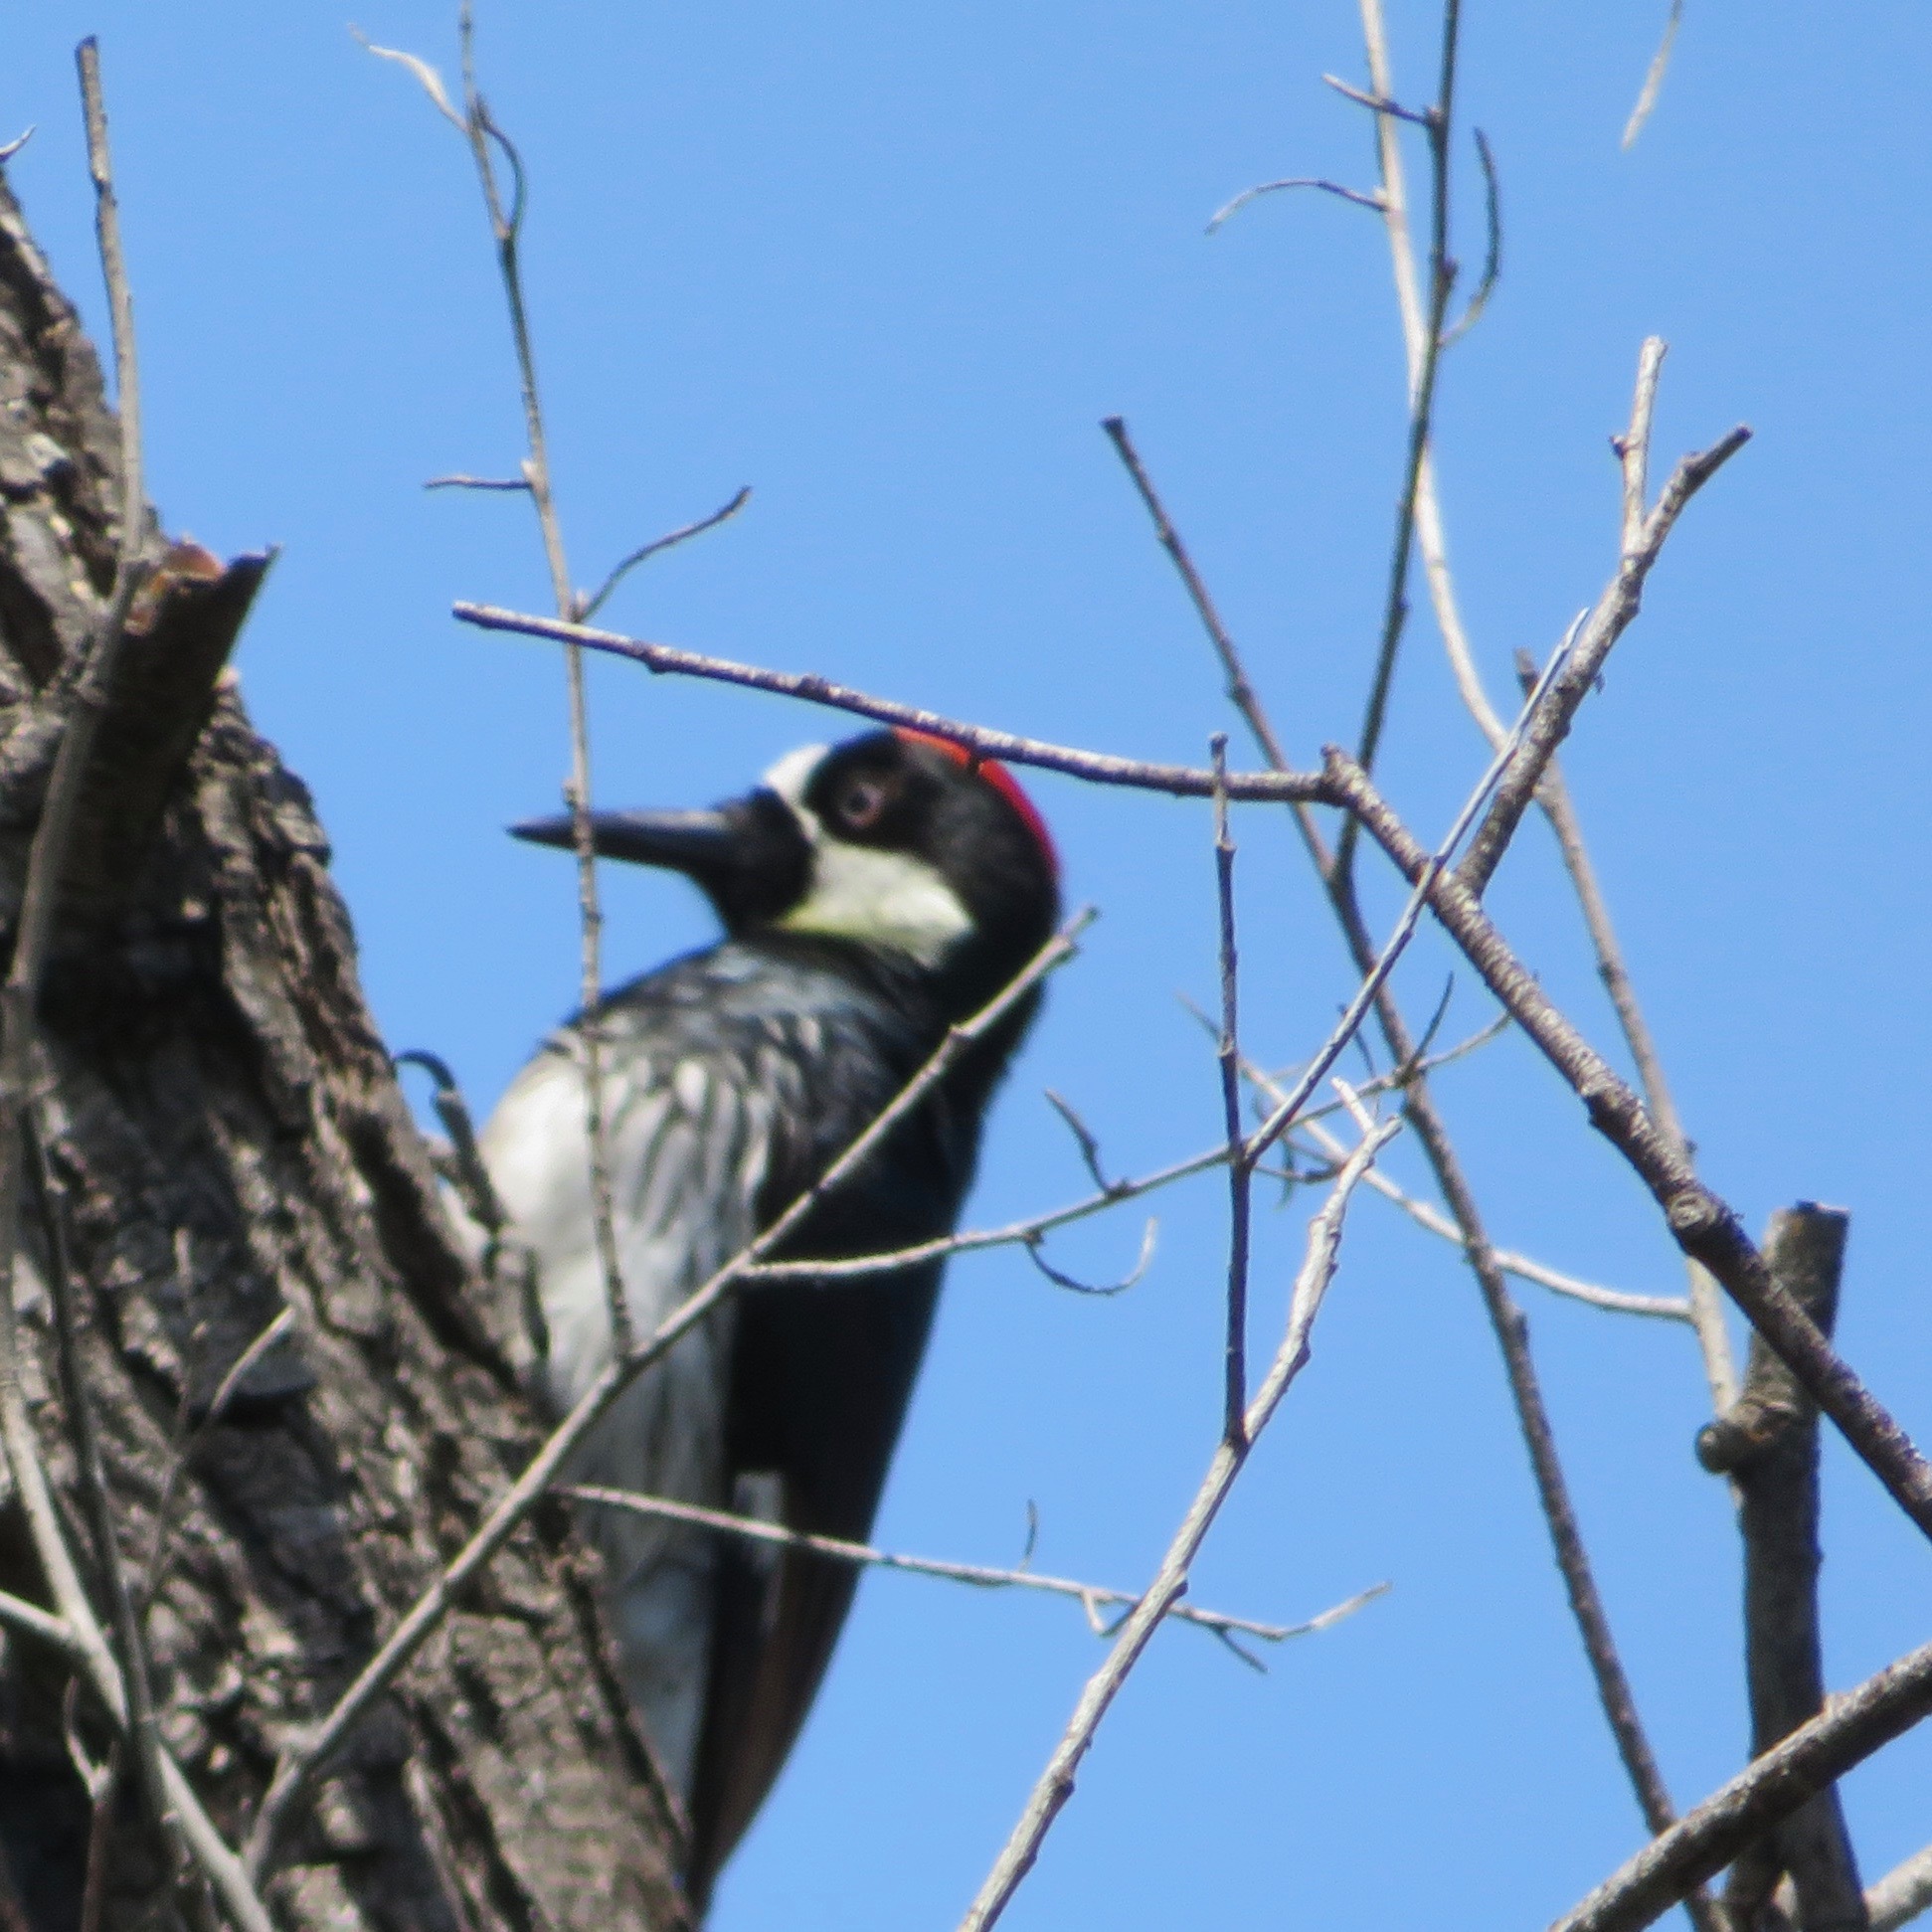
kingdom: Animalia
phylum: Chordata
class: Aves
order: Piciformes
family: Picidae
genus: Melanerpes
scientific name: Melanerpes formicivorus
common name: Acorn woodpecker
